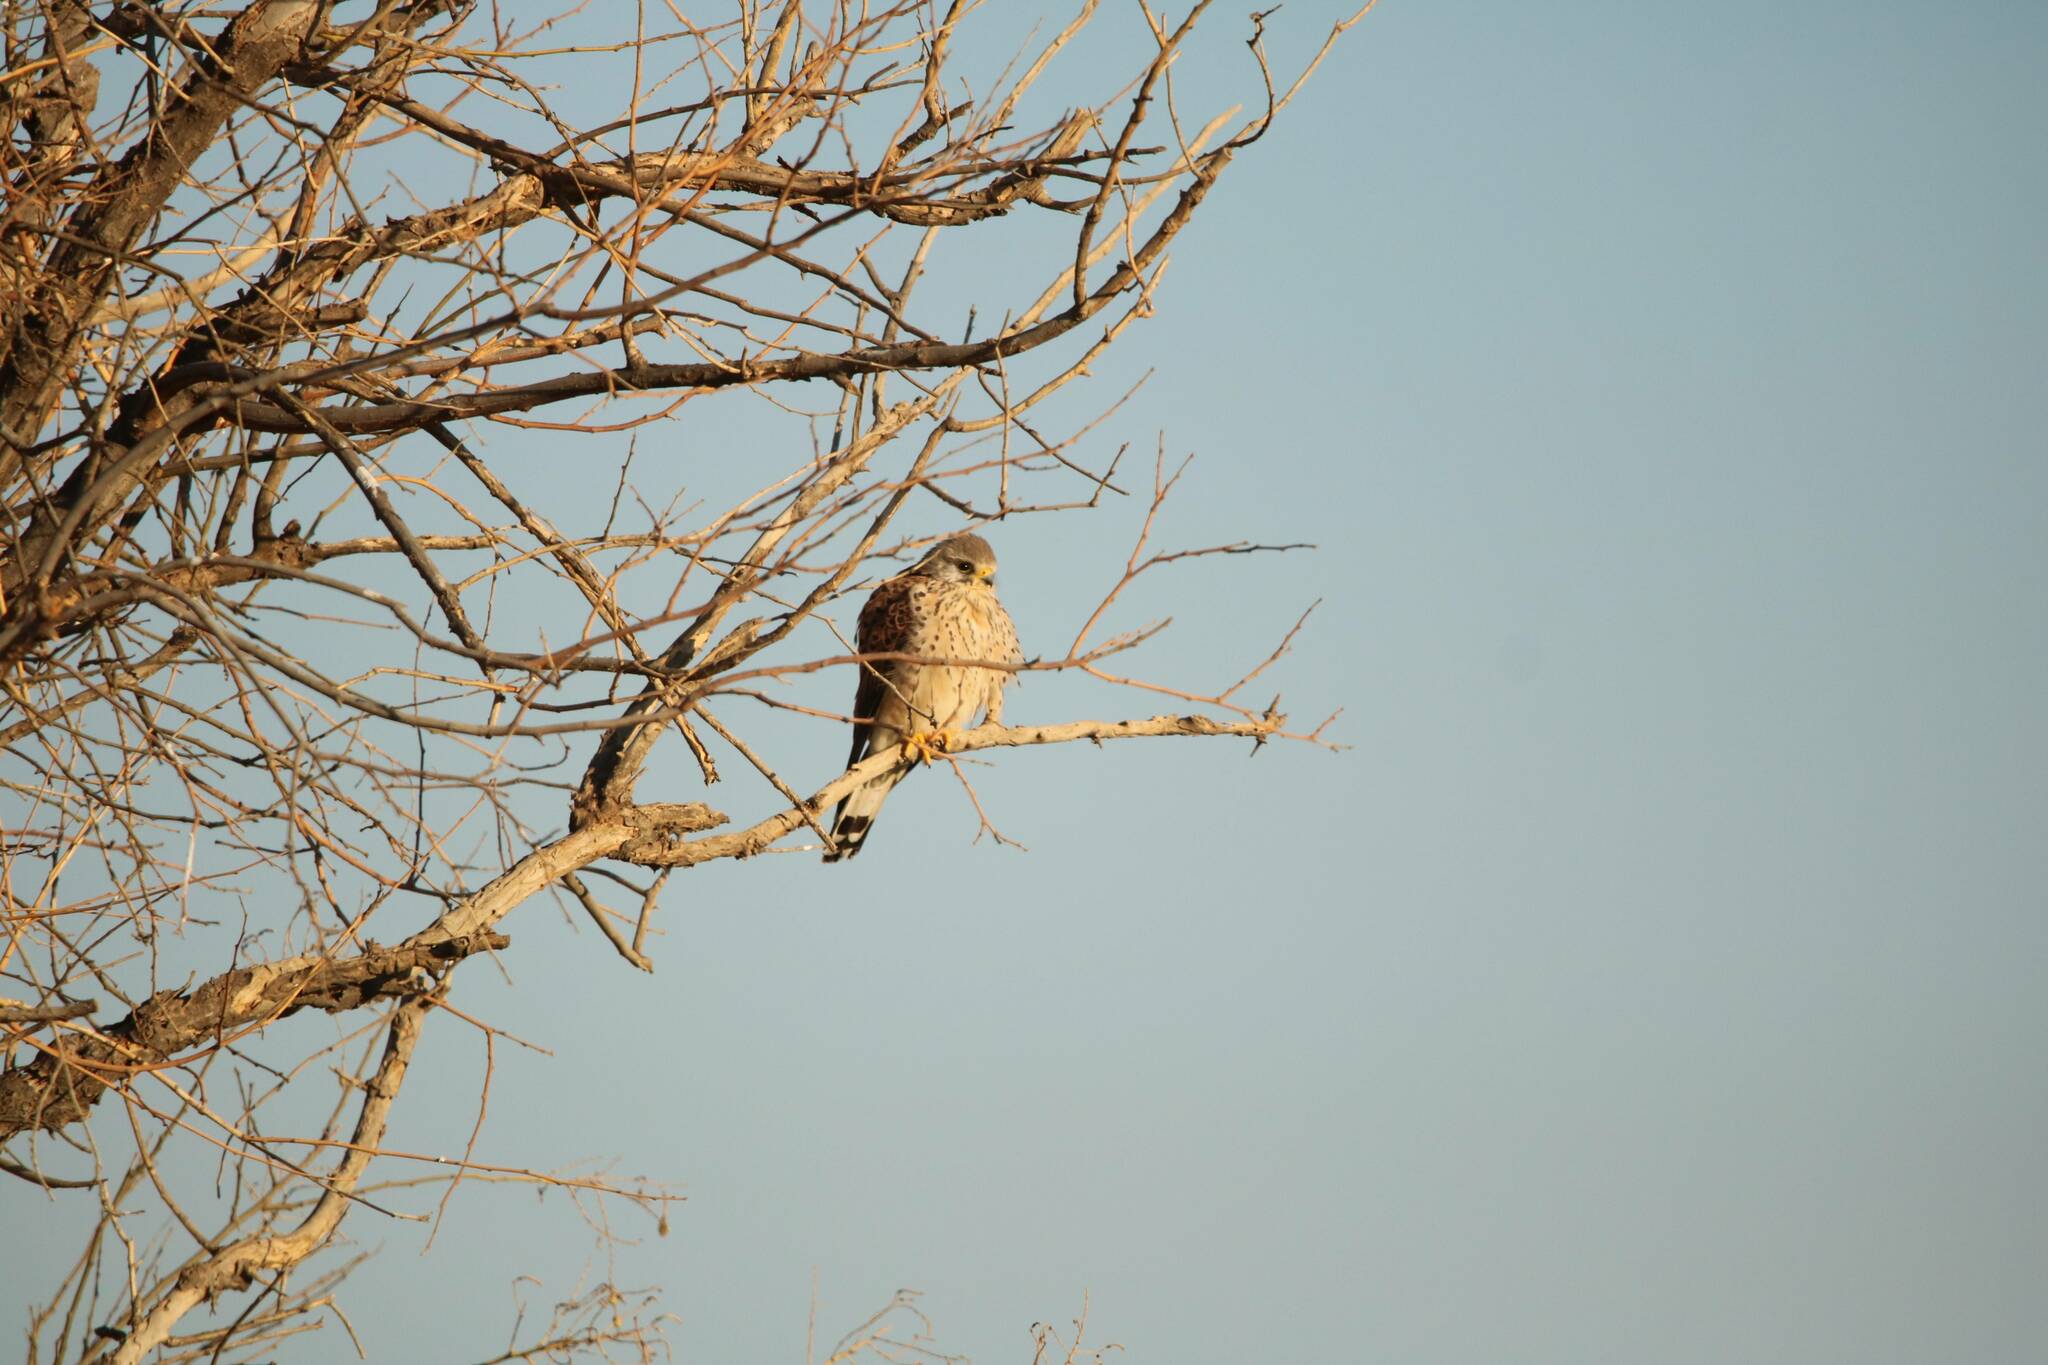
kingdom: Animalia
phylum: Chordata
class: Aves
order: Falconiformes
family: Falconidae
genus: Falco
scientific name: Falco tinnunculus
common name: Common kestrel
